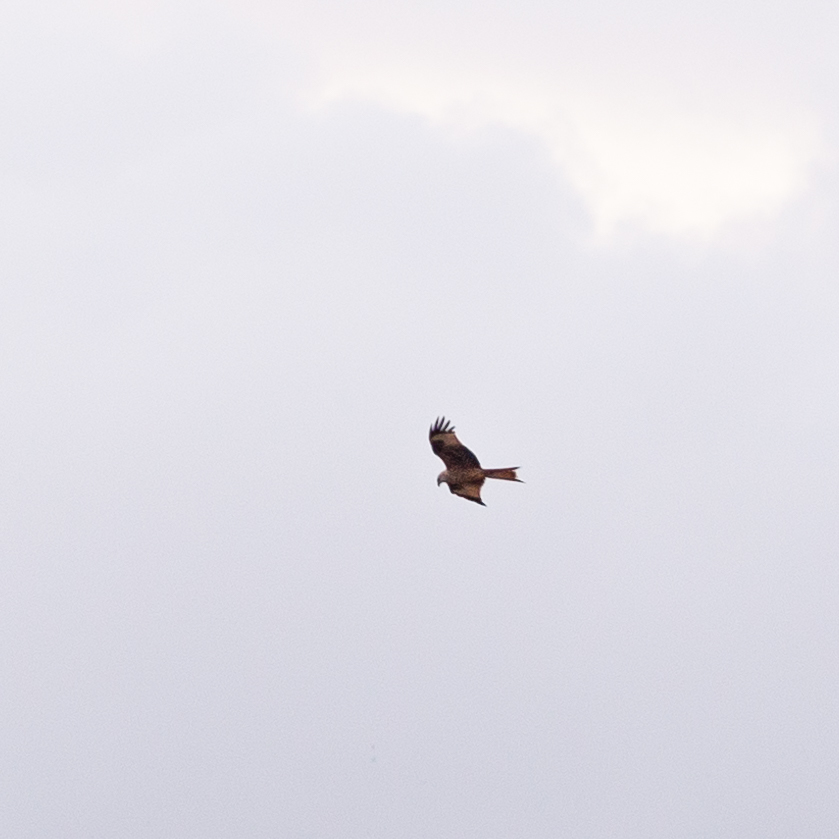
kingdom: Animalia
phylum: Chordata
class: Aves
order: Accipitriformes
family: Accipitridae
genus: Milvus
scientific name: Milvus milvus
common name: Red kite
